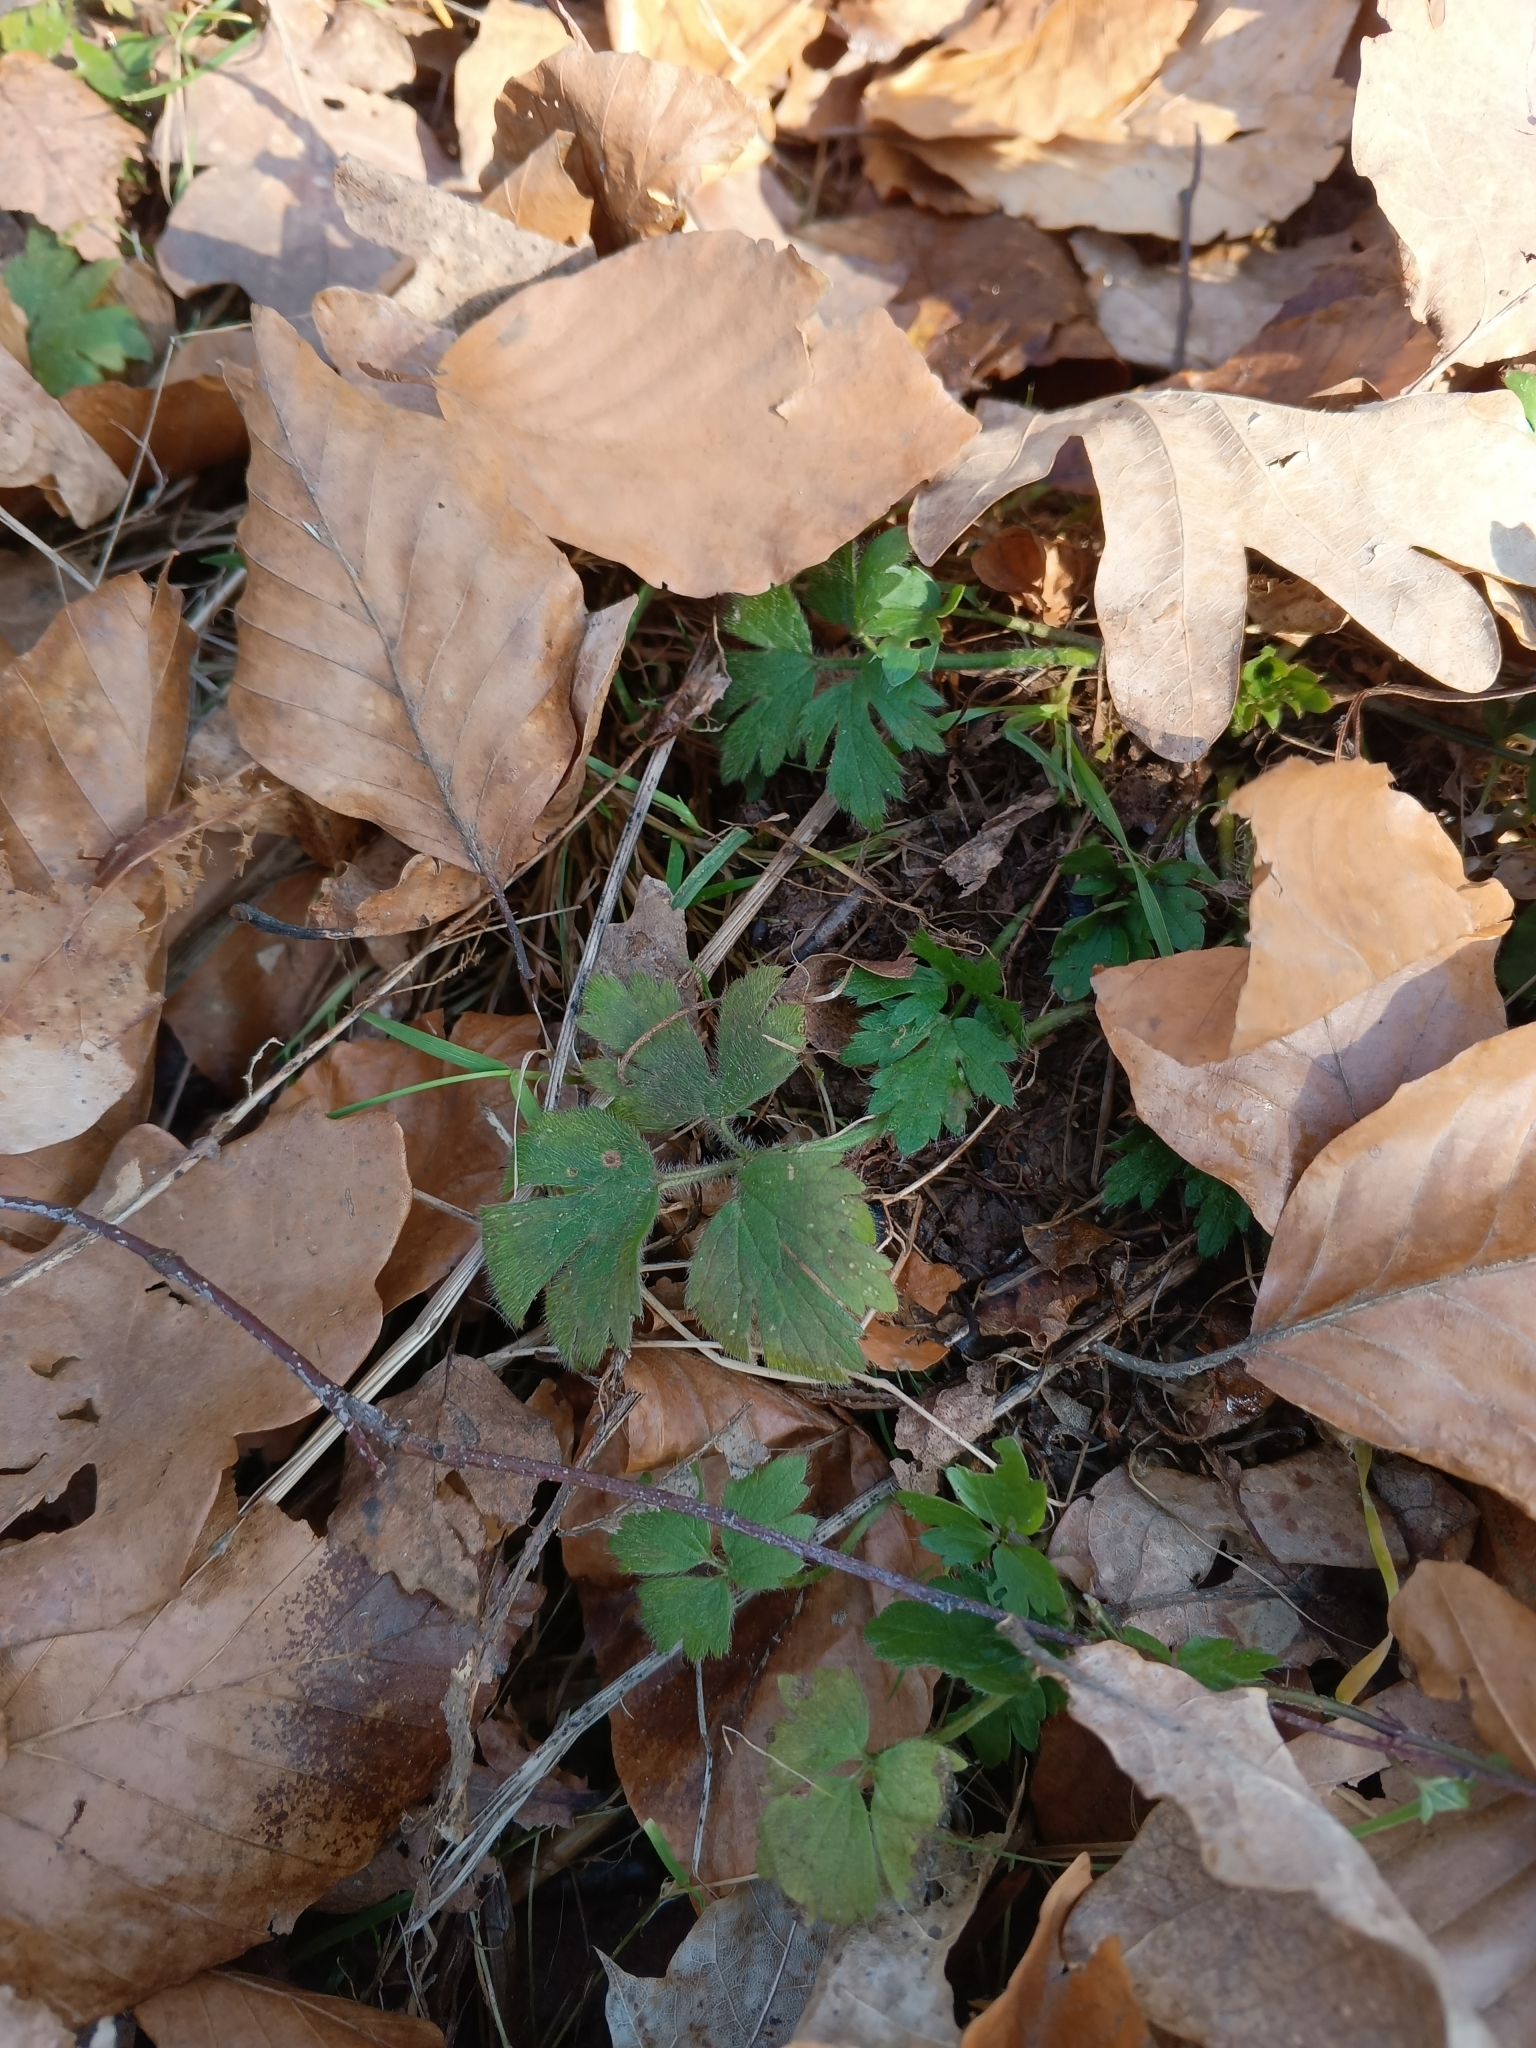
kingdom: Plantae
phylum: Tracheophyta
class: Magnoliopsida
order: Ranunculales
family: Ranunculaceae
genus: Ranunculus
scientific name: Ranunculus repens
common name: Creeping buttercup
